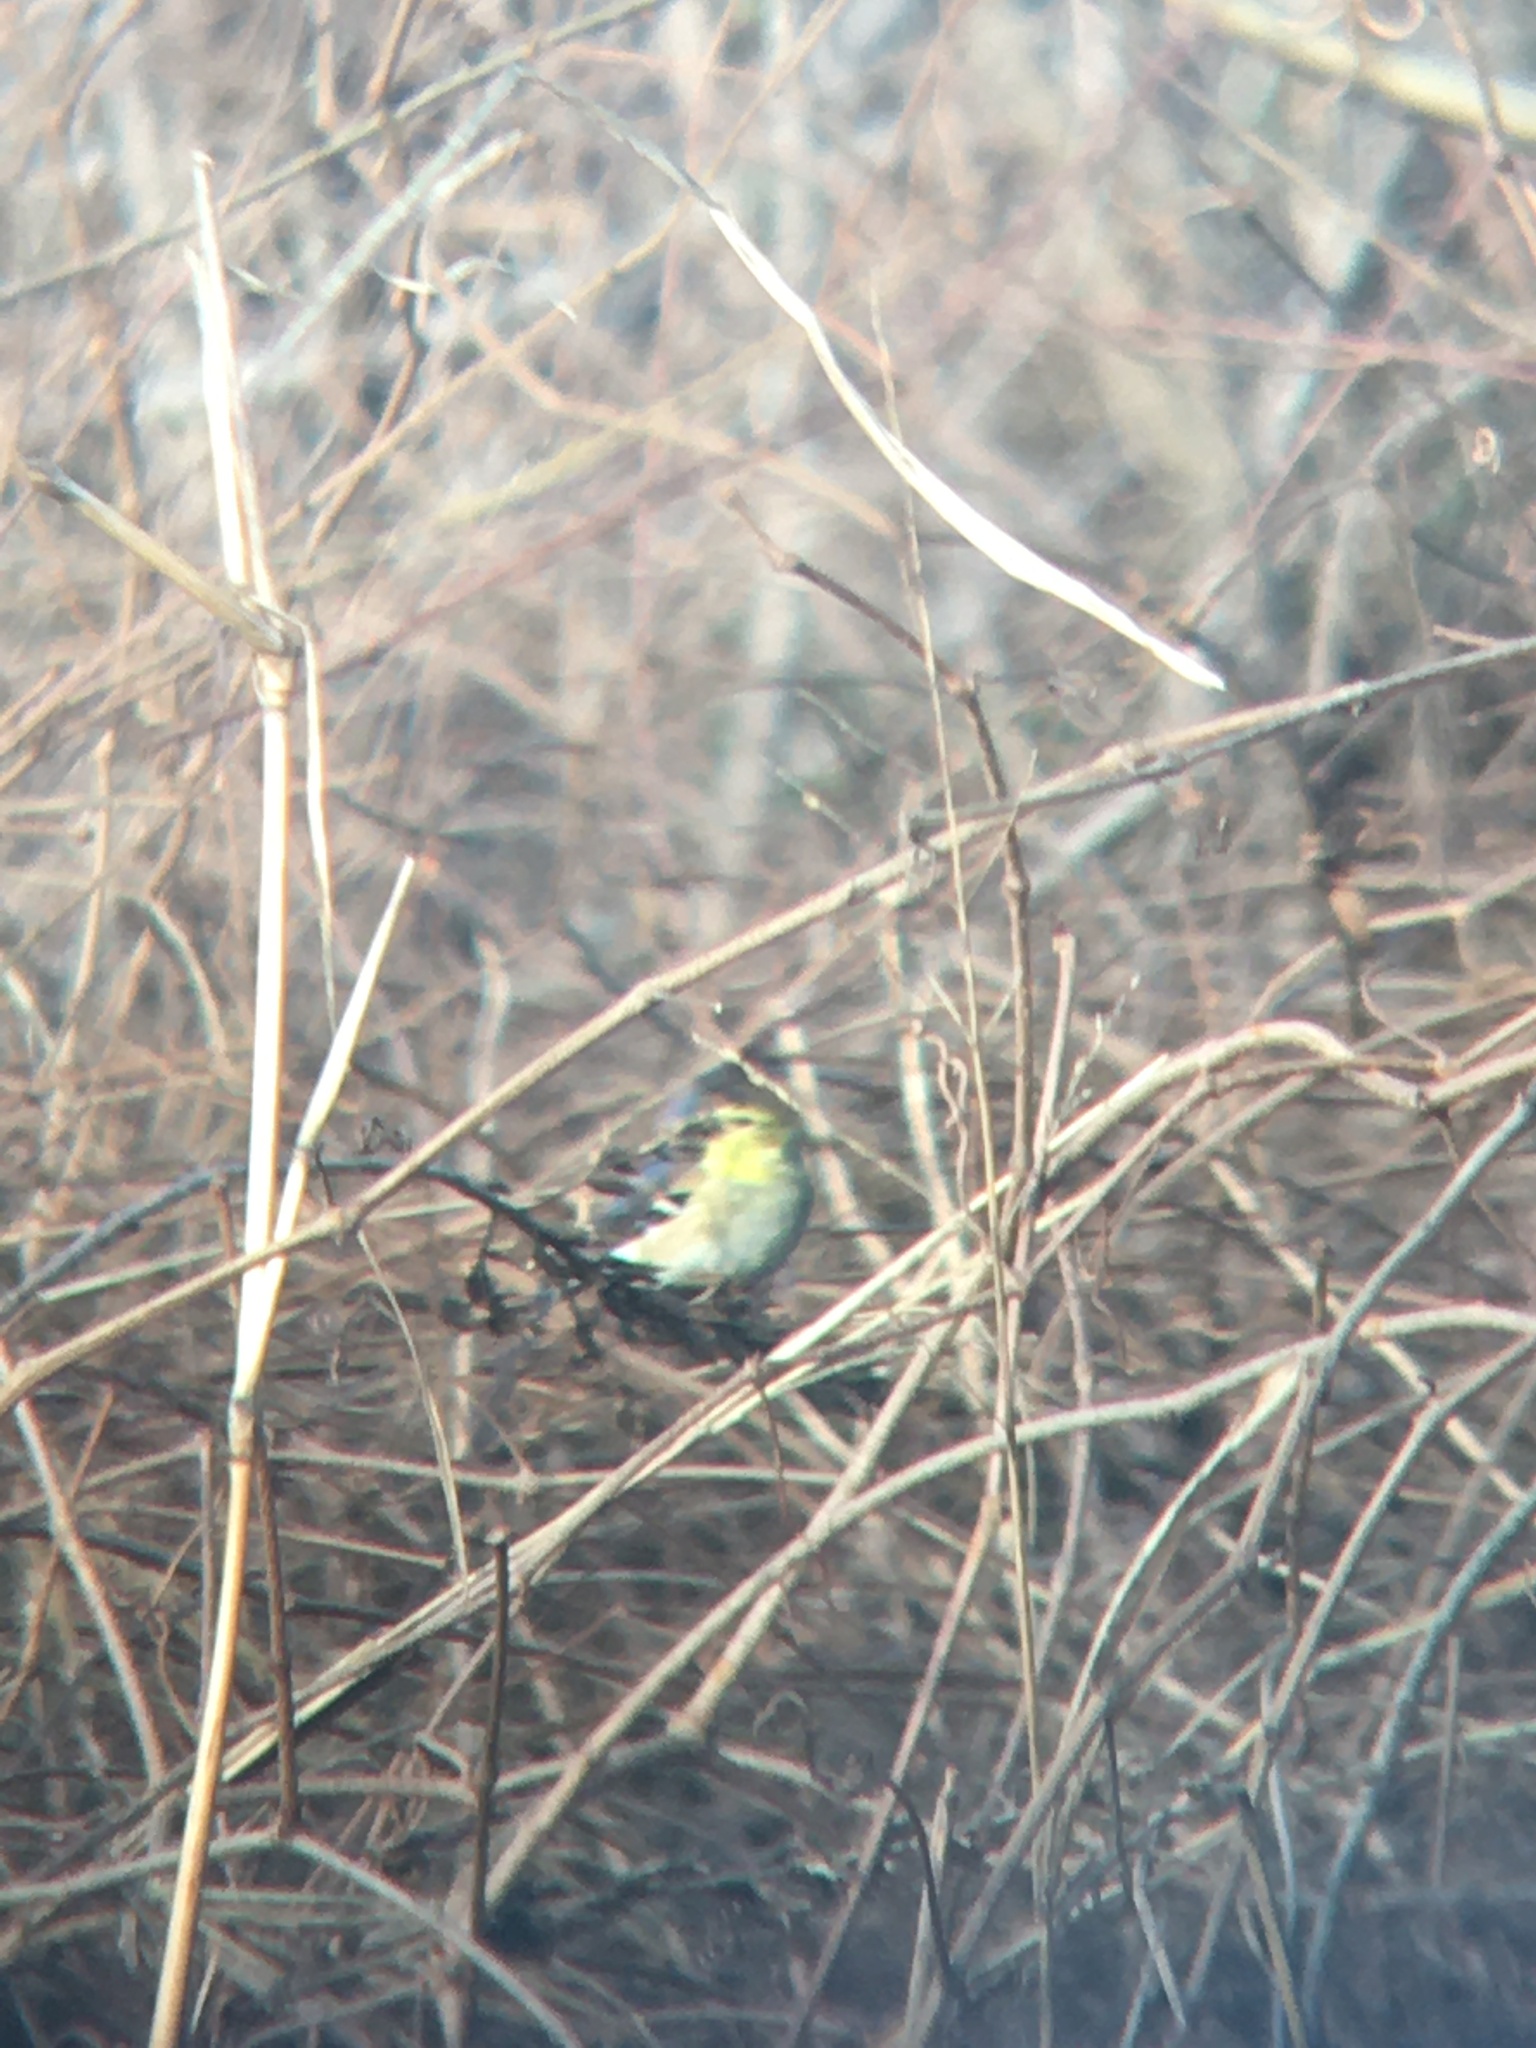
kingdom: Animalia
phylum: Chordata
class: Aves
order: Passeriformes
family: Fringillidae
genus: Spinus
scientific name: Spinus tristis
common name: American goldfinch
